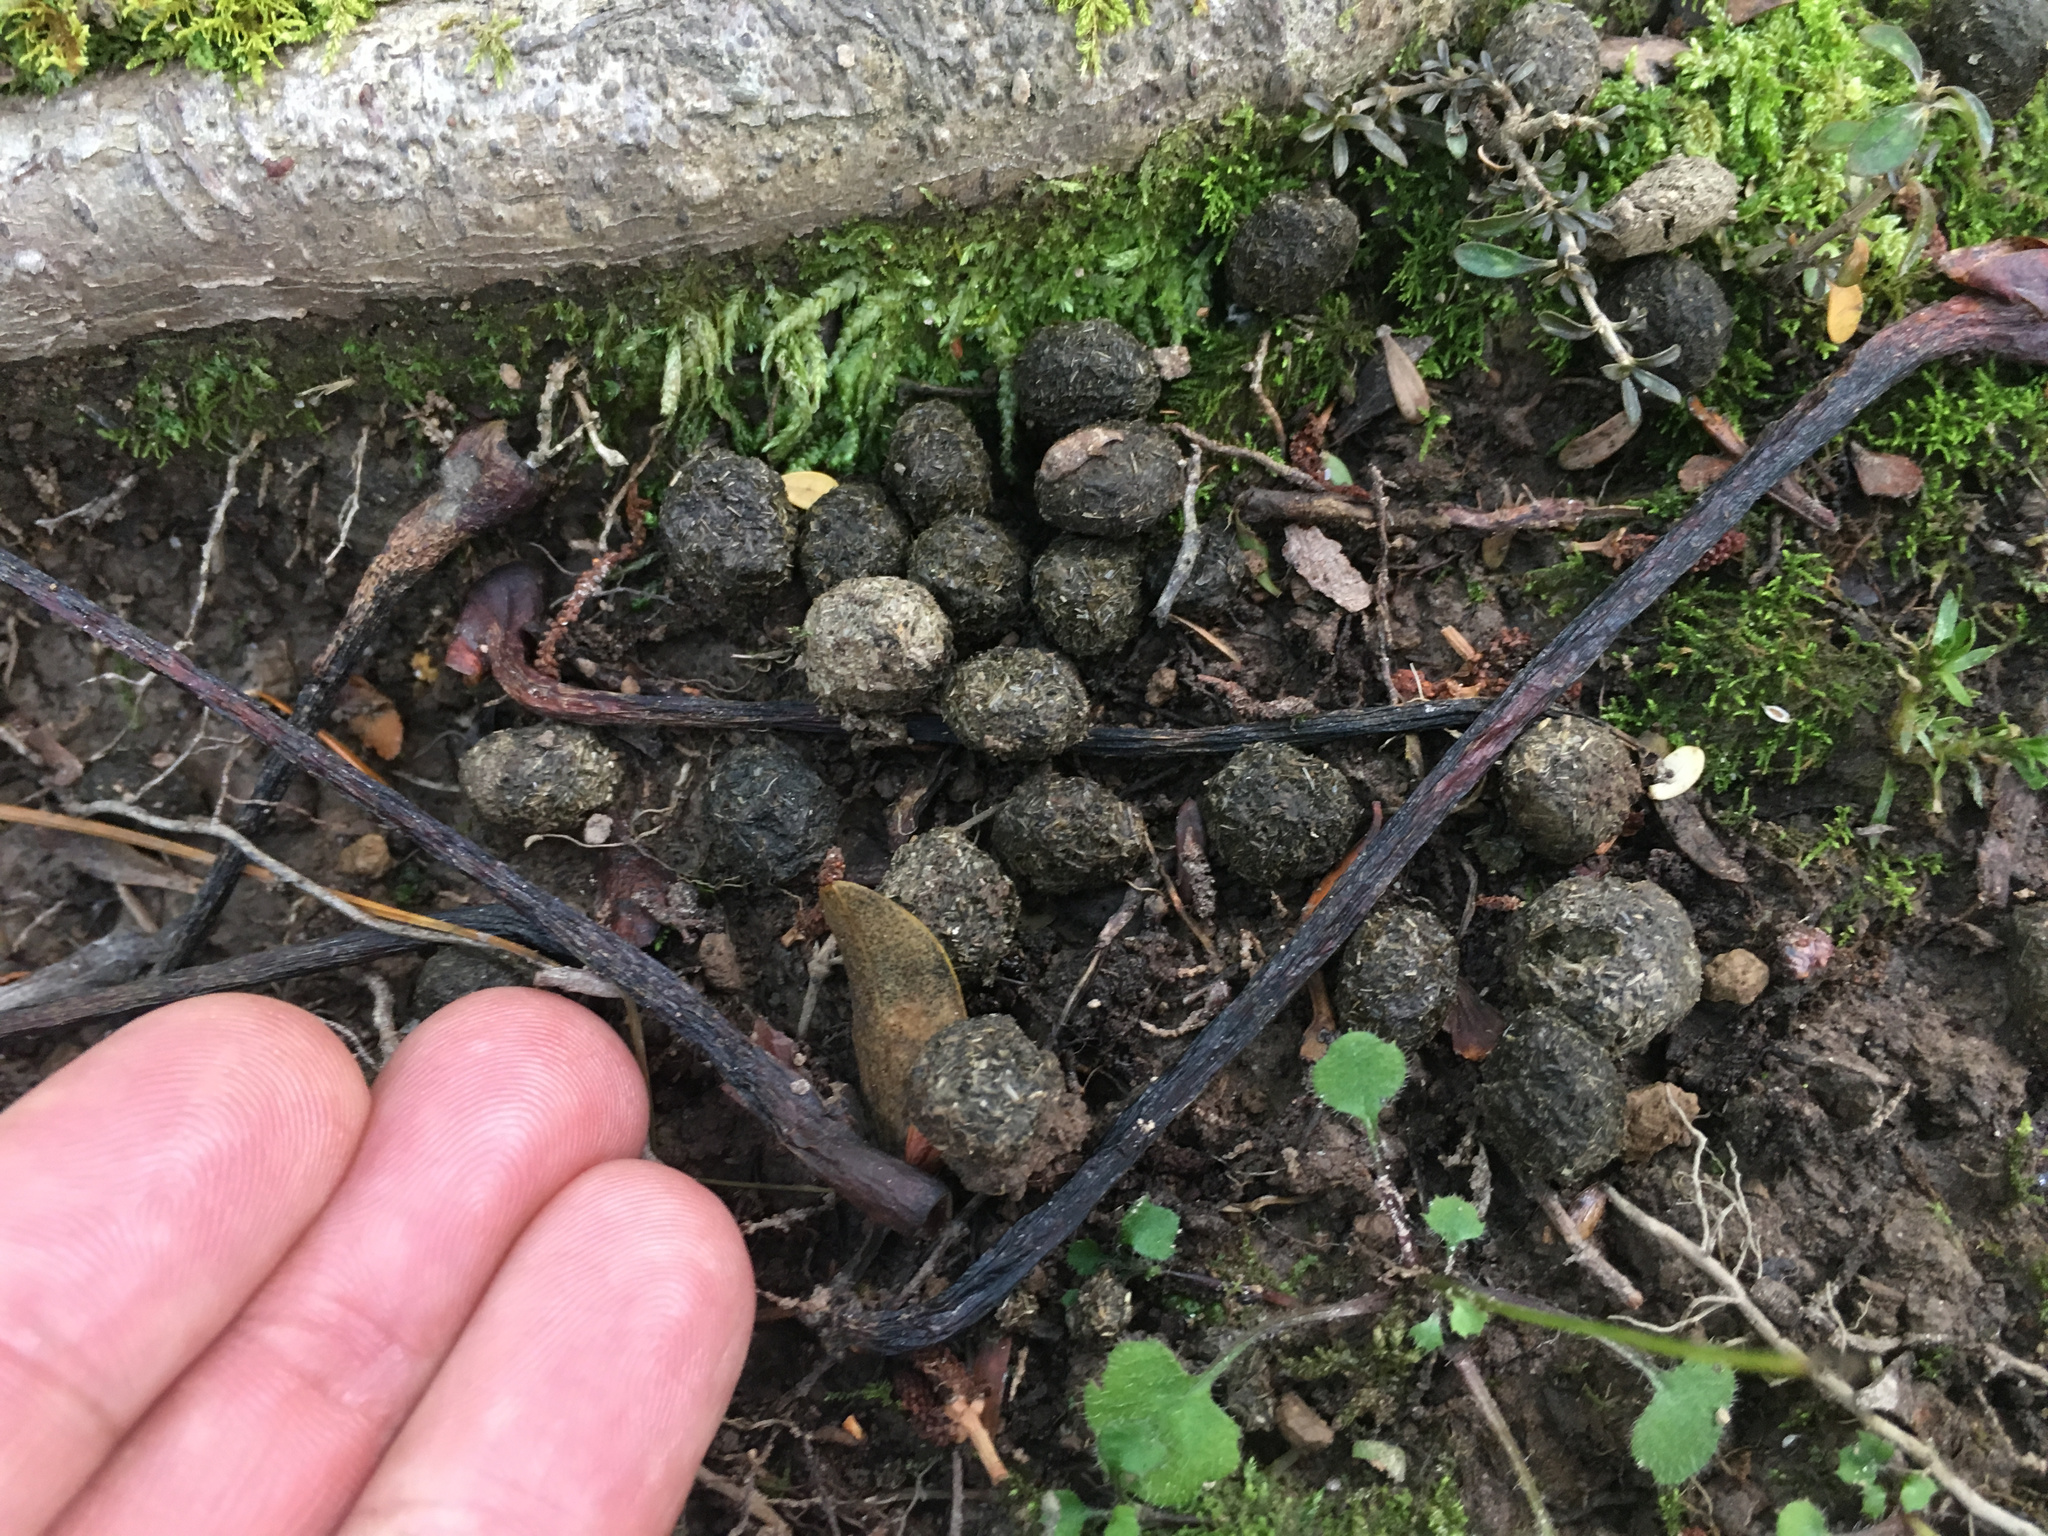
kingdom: Animalia
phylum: Chordata
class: Mammalia
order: Lagomorpha
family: Leporidae
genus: Oryctolagus
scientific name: Oryctolagus cuniculus
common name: European rabbit
